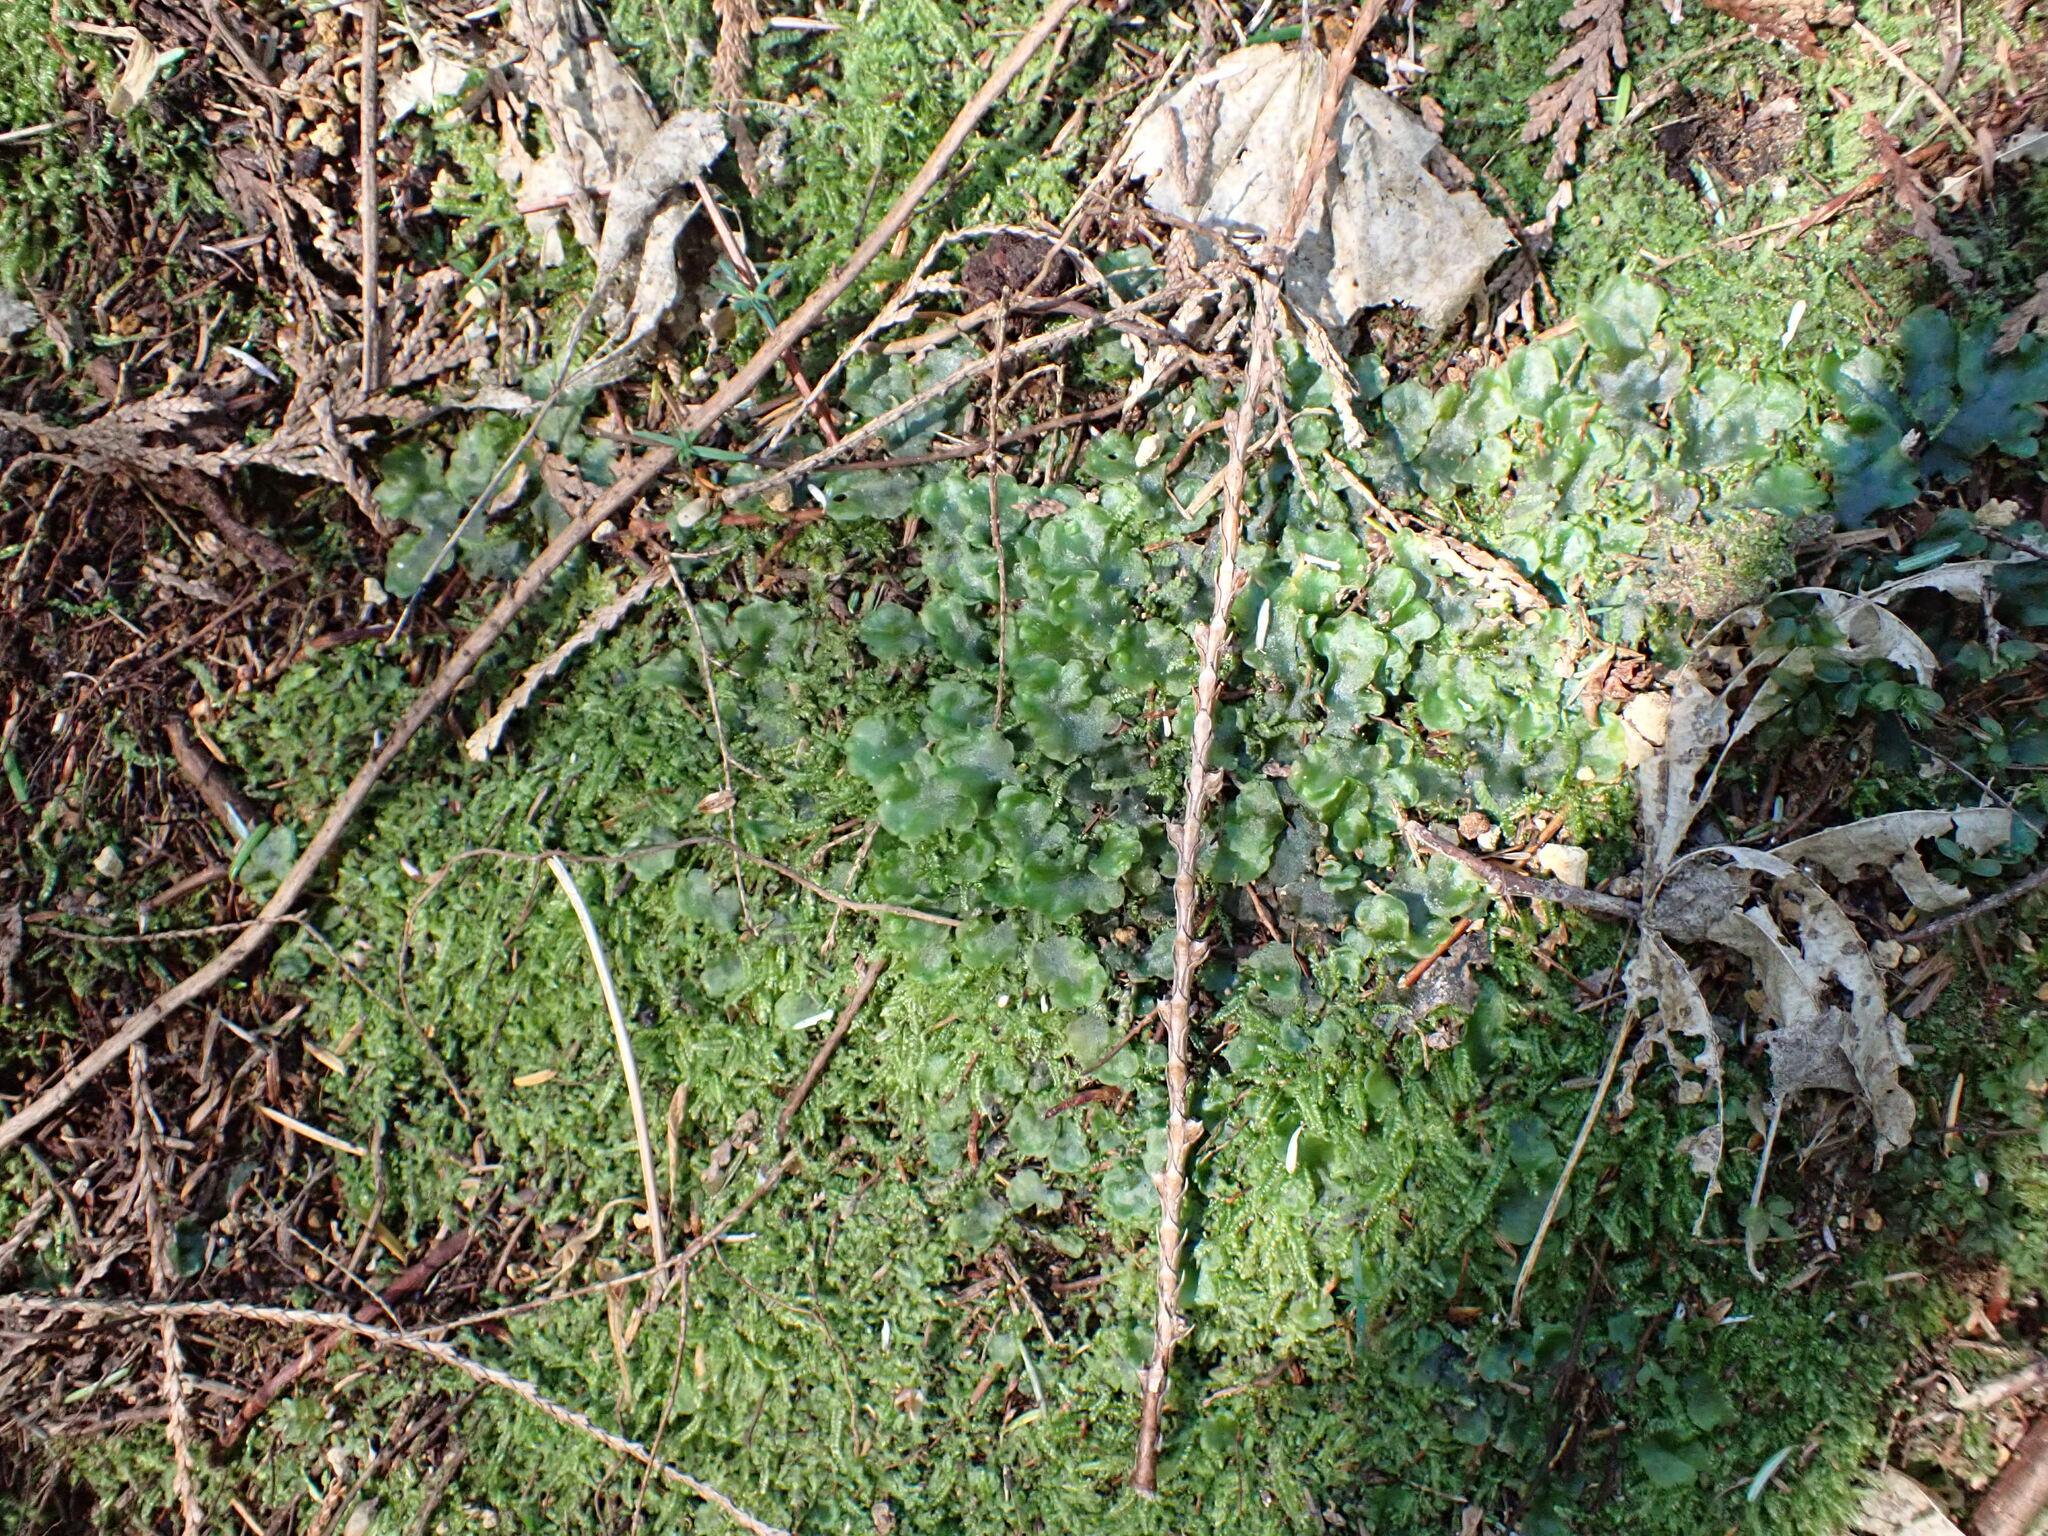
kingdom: Plantae
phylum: Marchantiophyta
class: Jungermanniopsida
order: Pelliales
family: Pelliaceae
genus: Pellia
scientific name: Pellia neesiana
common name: Nees  pellia
